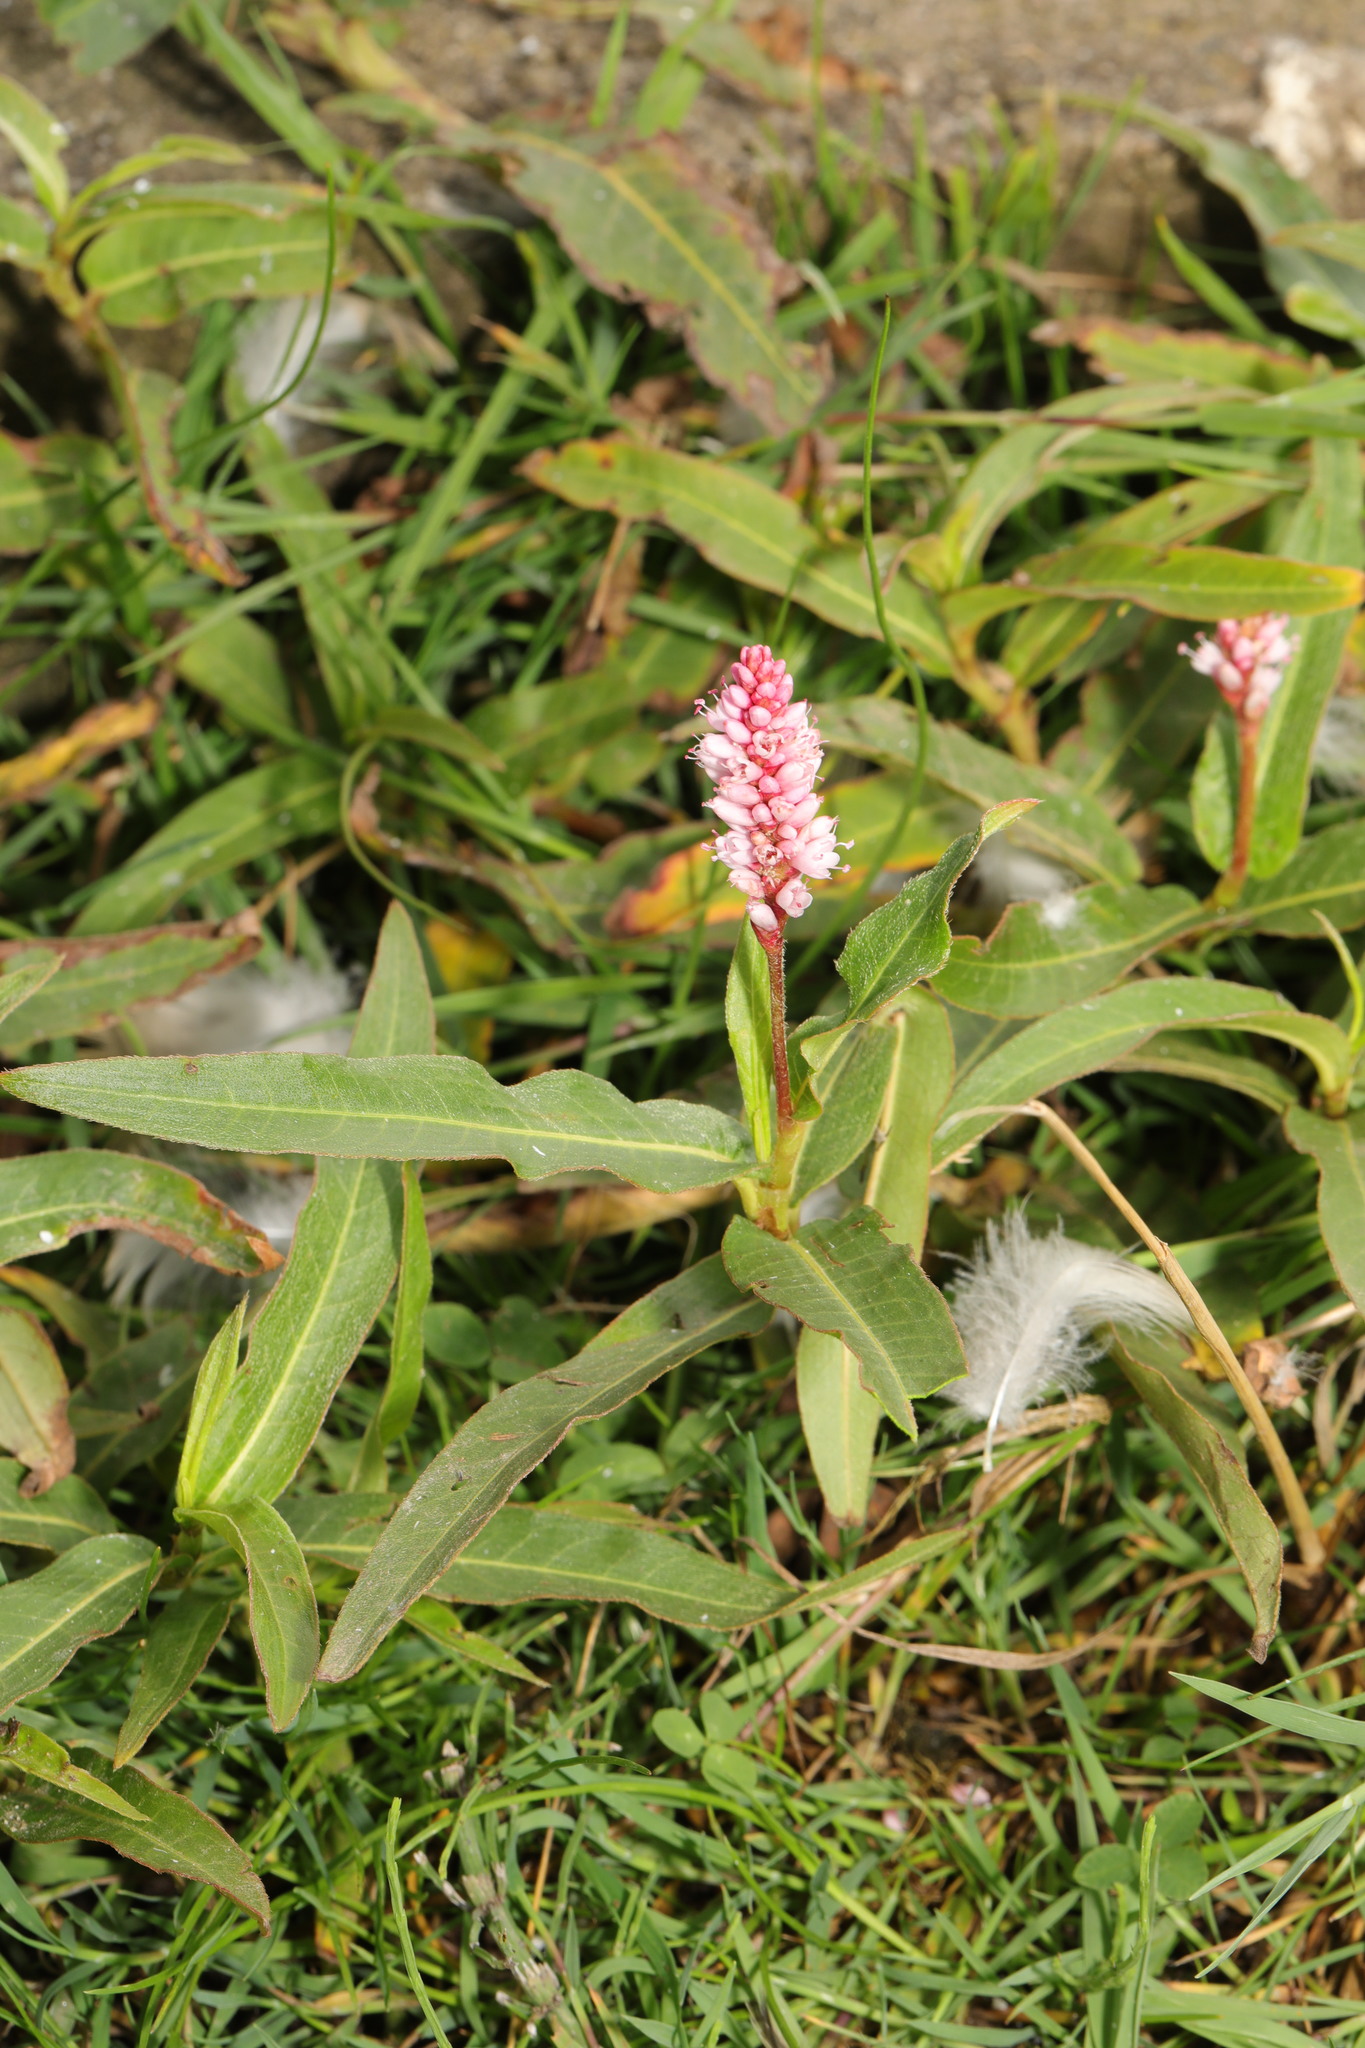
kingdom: Plantae
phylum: Tracheophyta
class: Magnoliopsida
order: Caryophyllales
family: Polygonaceae
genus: Persicaria
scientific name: Persicaria amphibia
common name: Amphibious bistort
